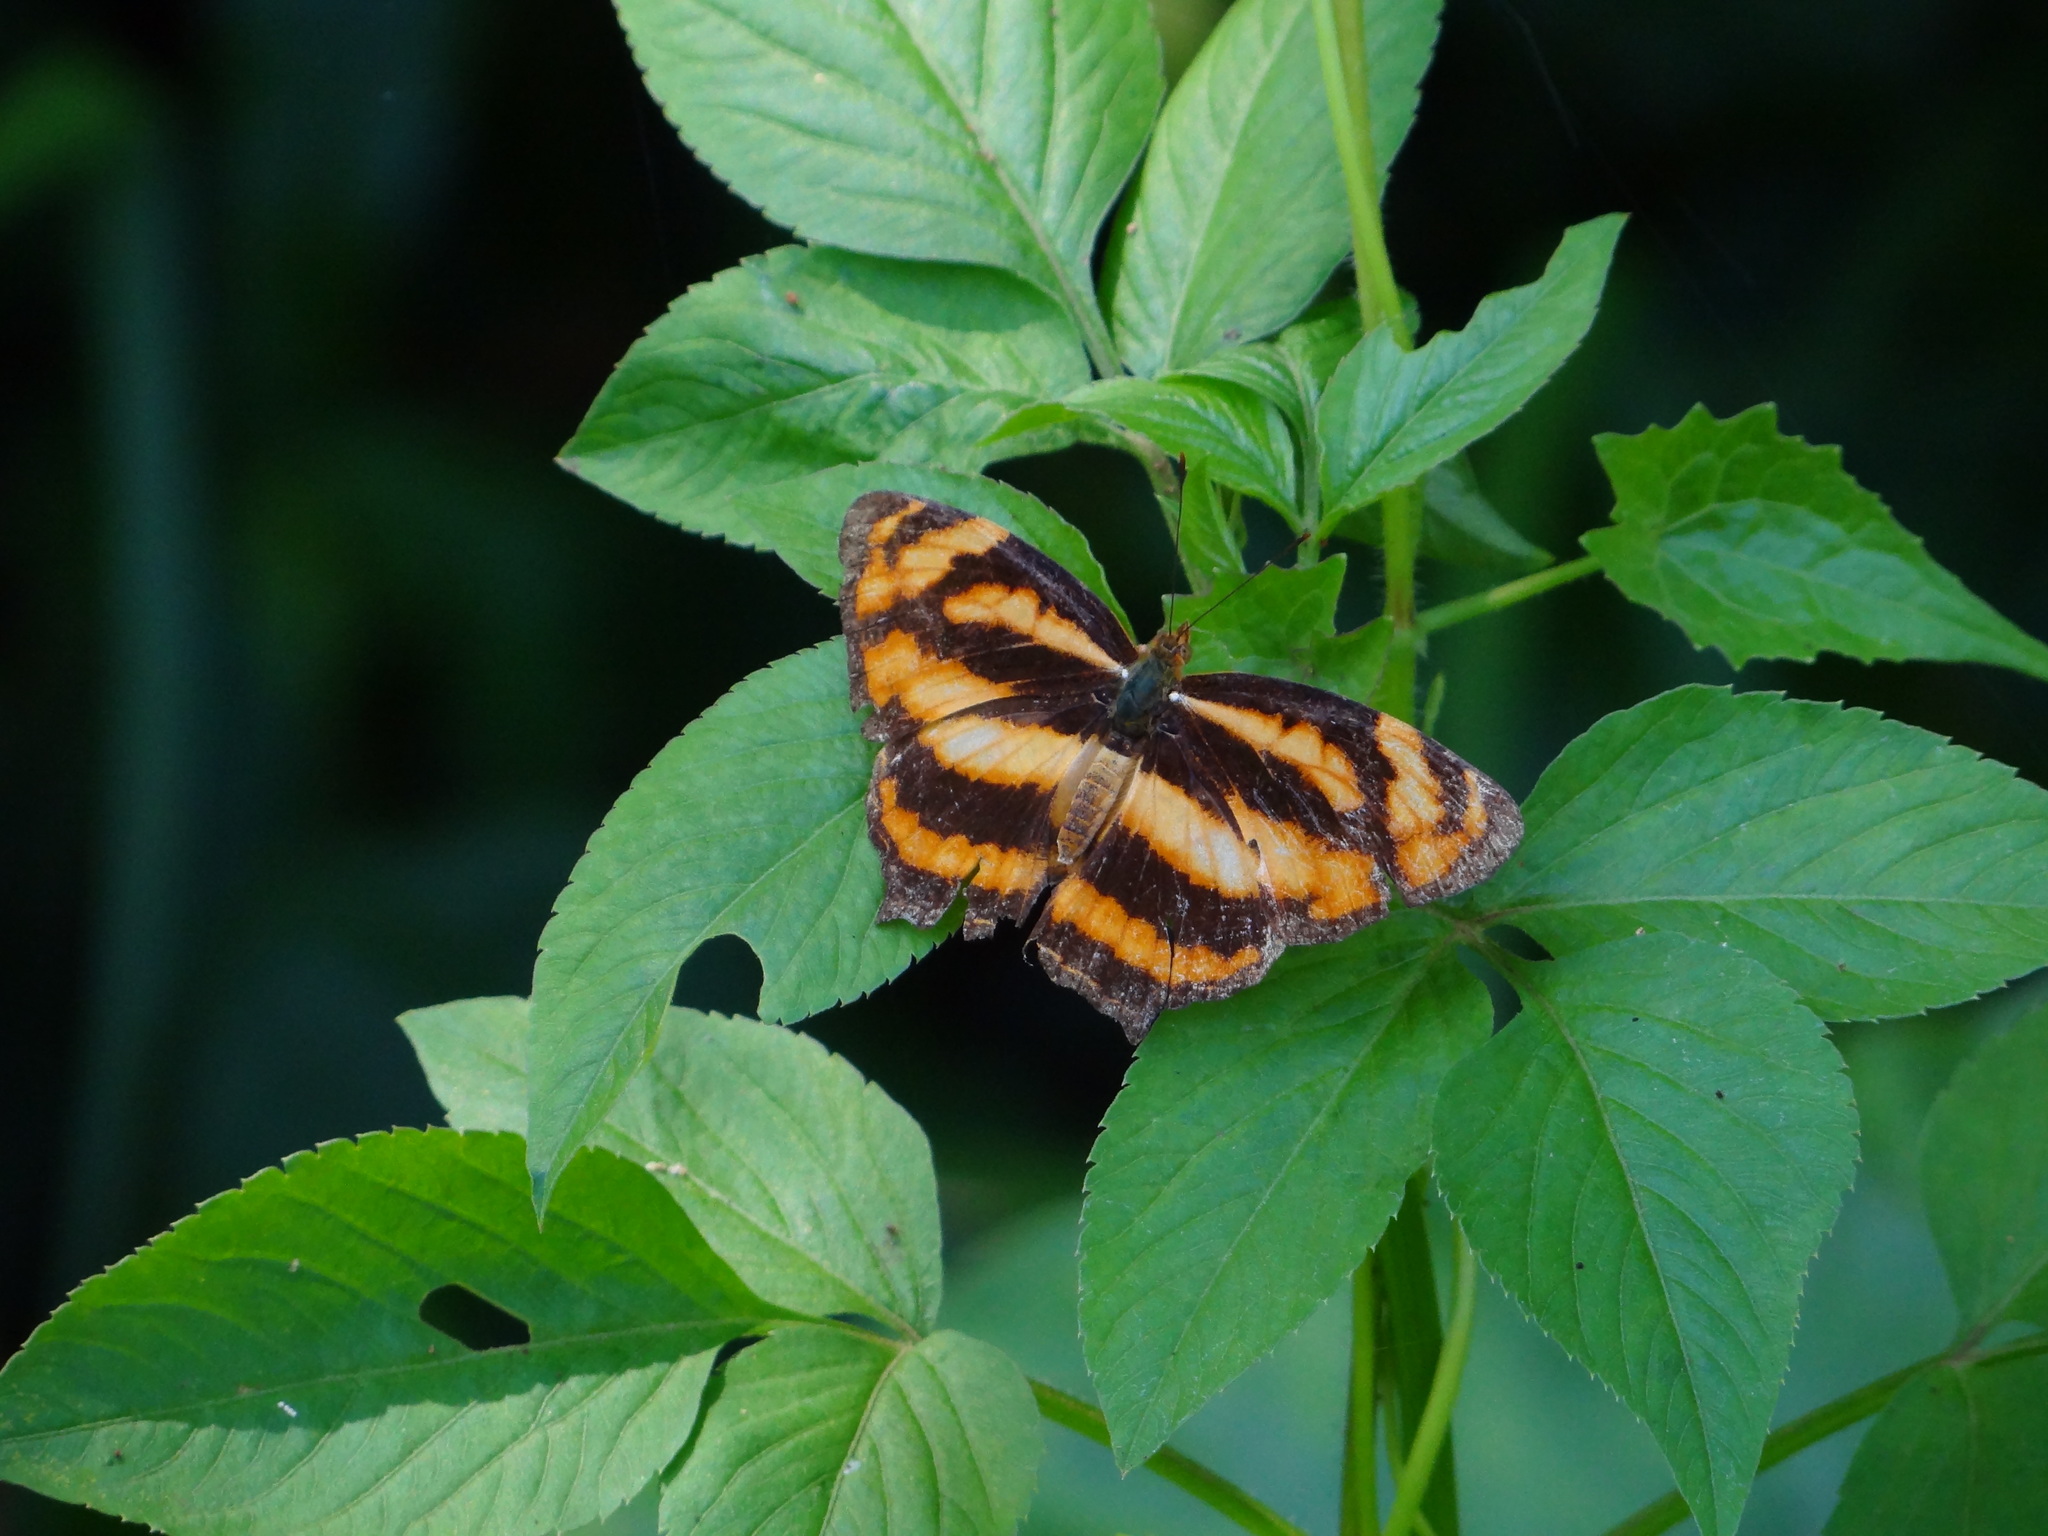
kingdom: Animalia
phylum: Arthropoda
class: Insecta
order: Lepidoptera
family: Nymphalidae
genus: Symbrenthia
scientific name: Symbrenthia hypselis
